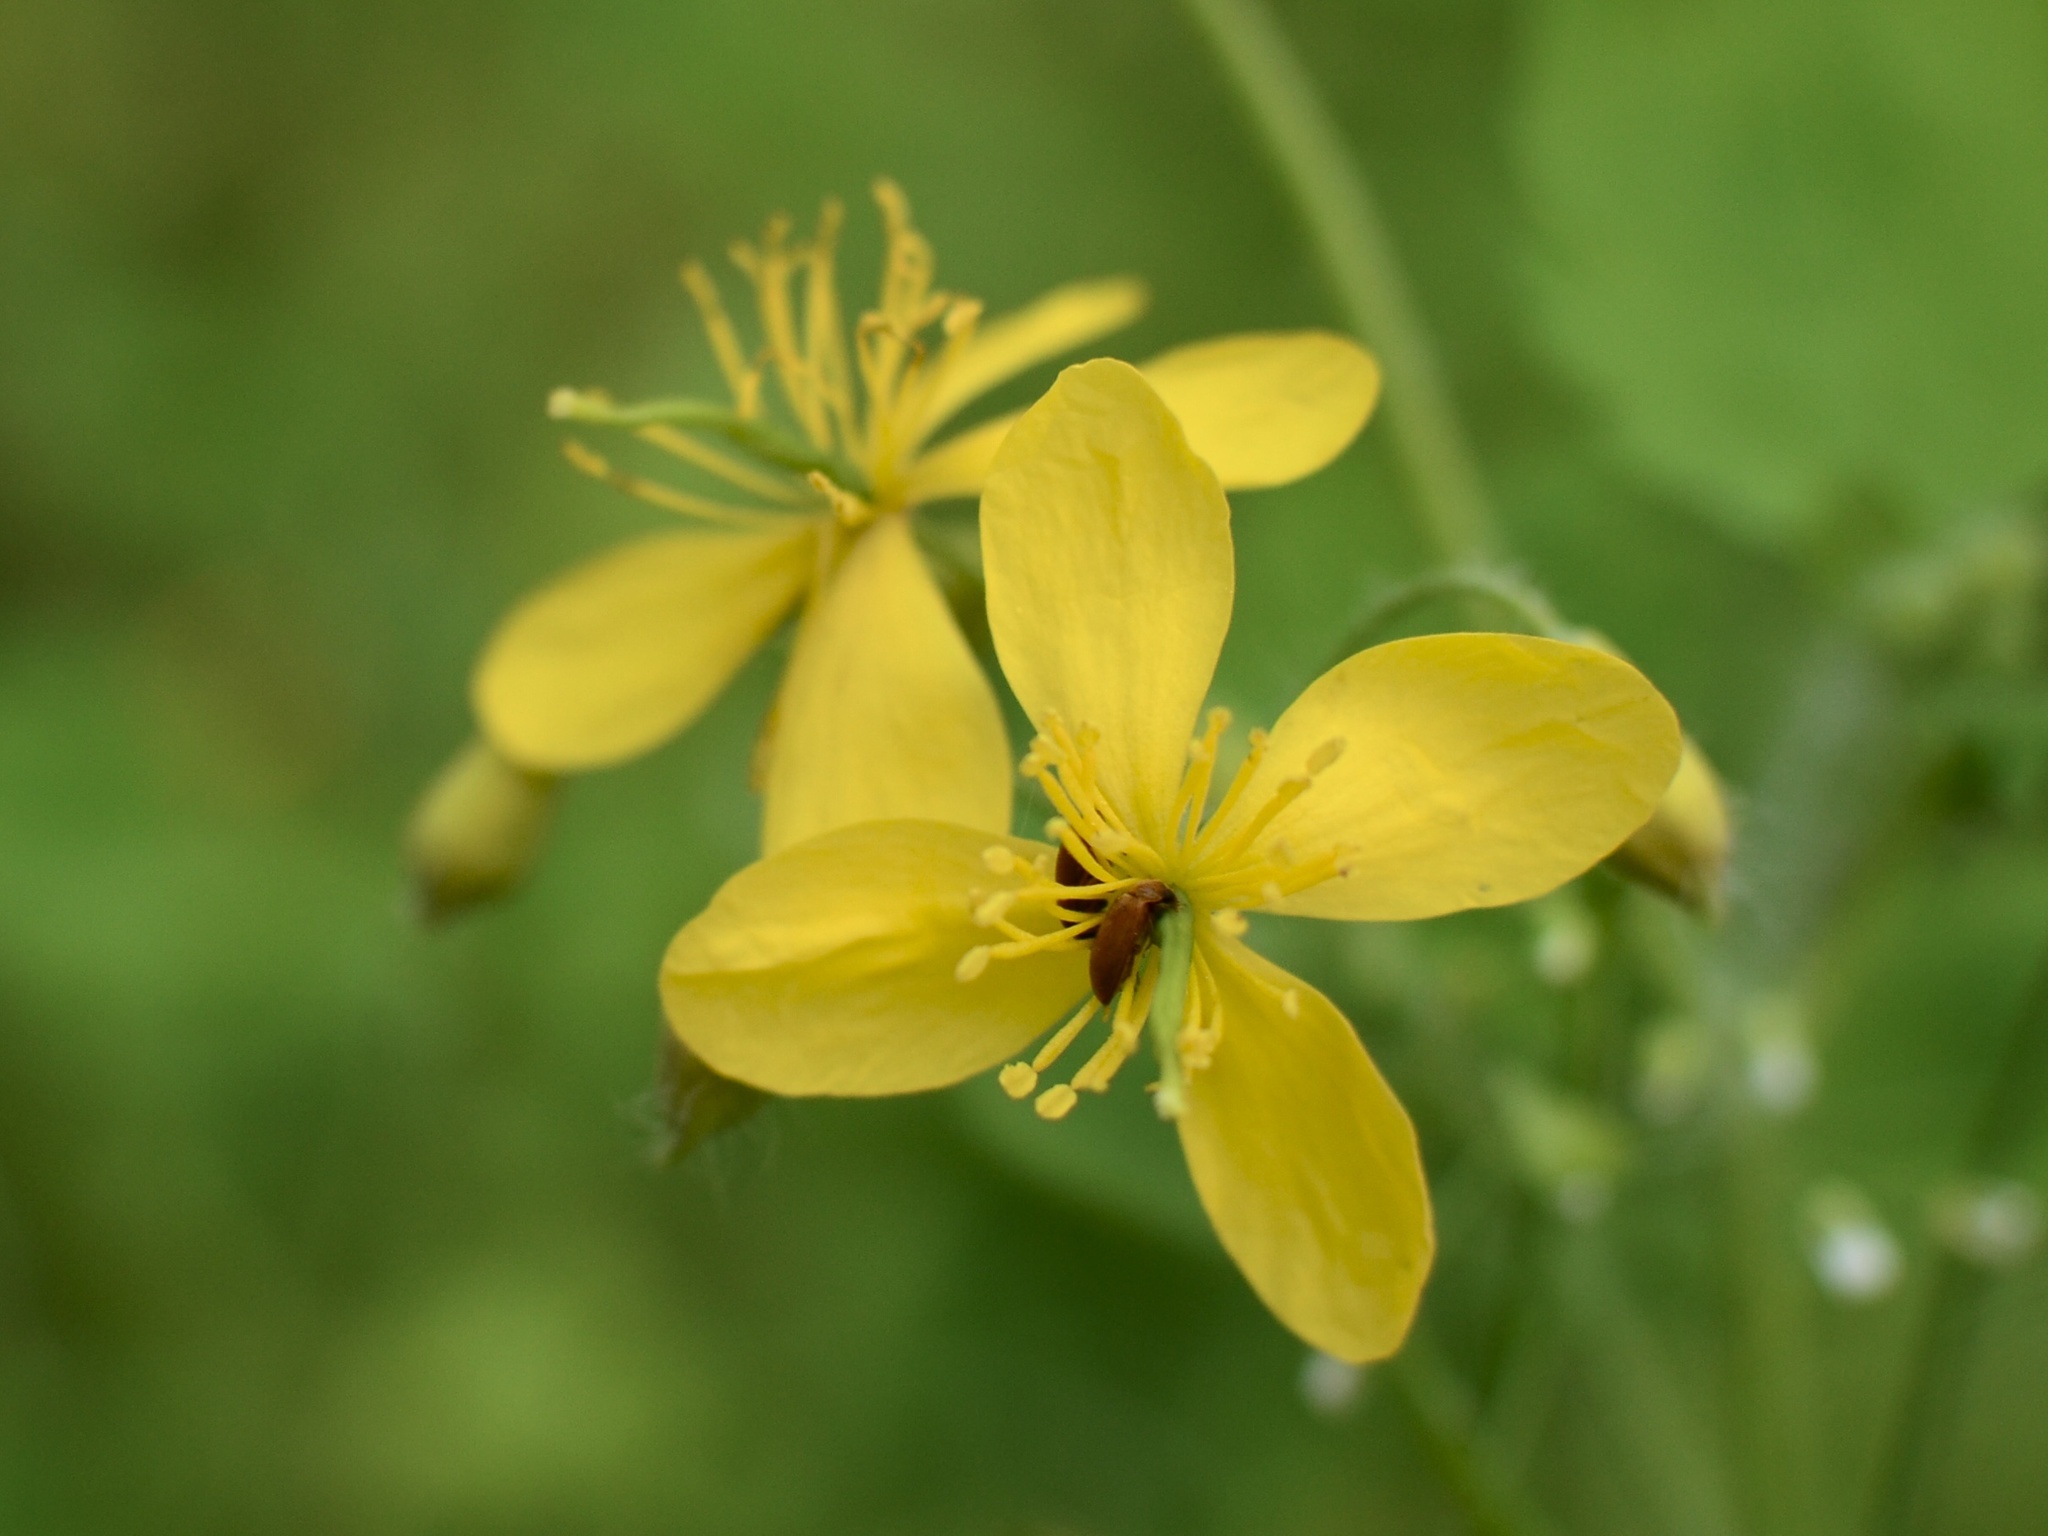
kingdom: Plantae
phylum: Tracheophyta
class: Magnoliopsida
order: Ranunculales
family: Papaveraceae
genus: Chelidonium
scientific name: Chelidonium majus
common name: Greater celandine
